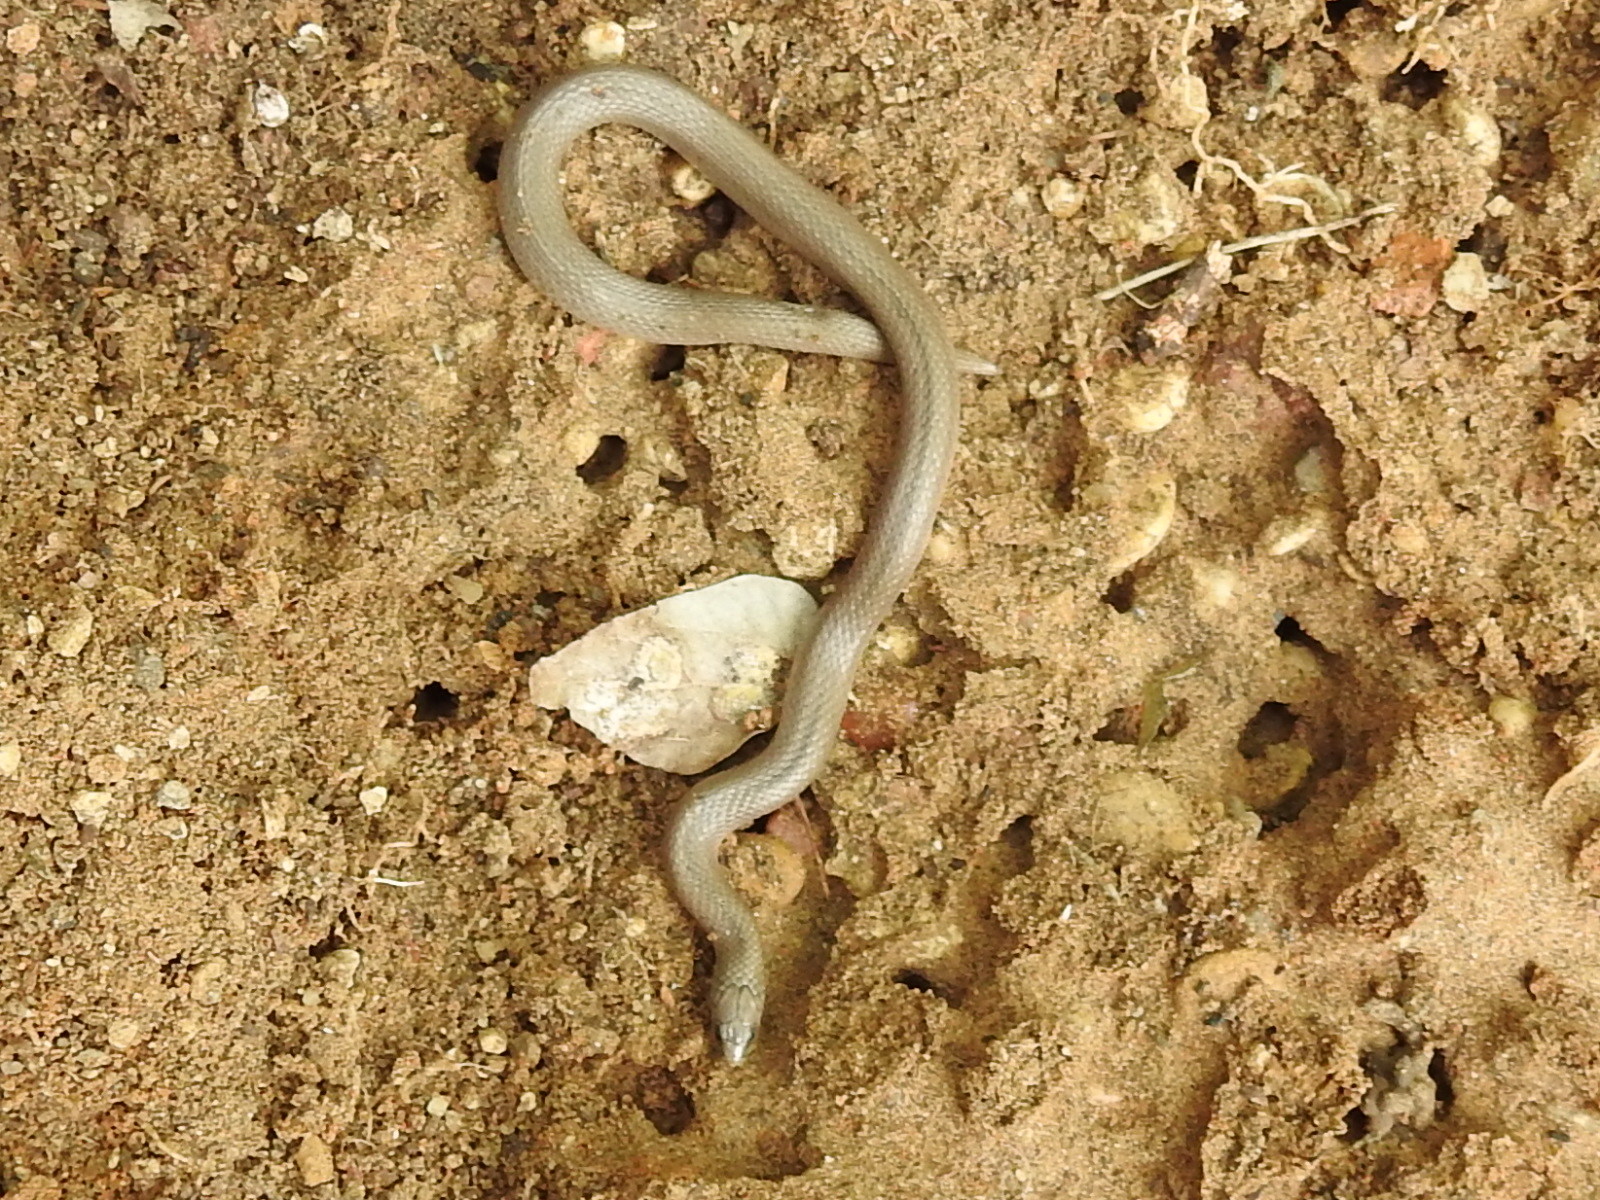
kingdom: Animalia
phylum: Chordata
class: Squamata
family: Colubridae
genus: Haldea
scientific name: Haldea striatula
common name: Rough earth snake
